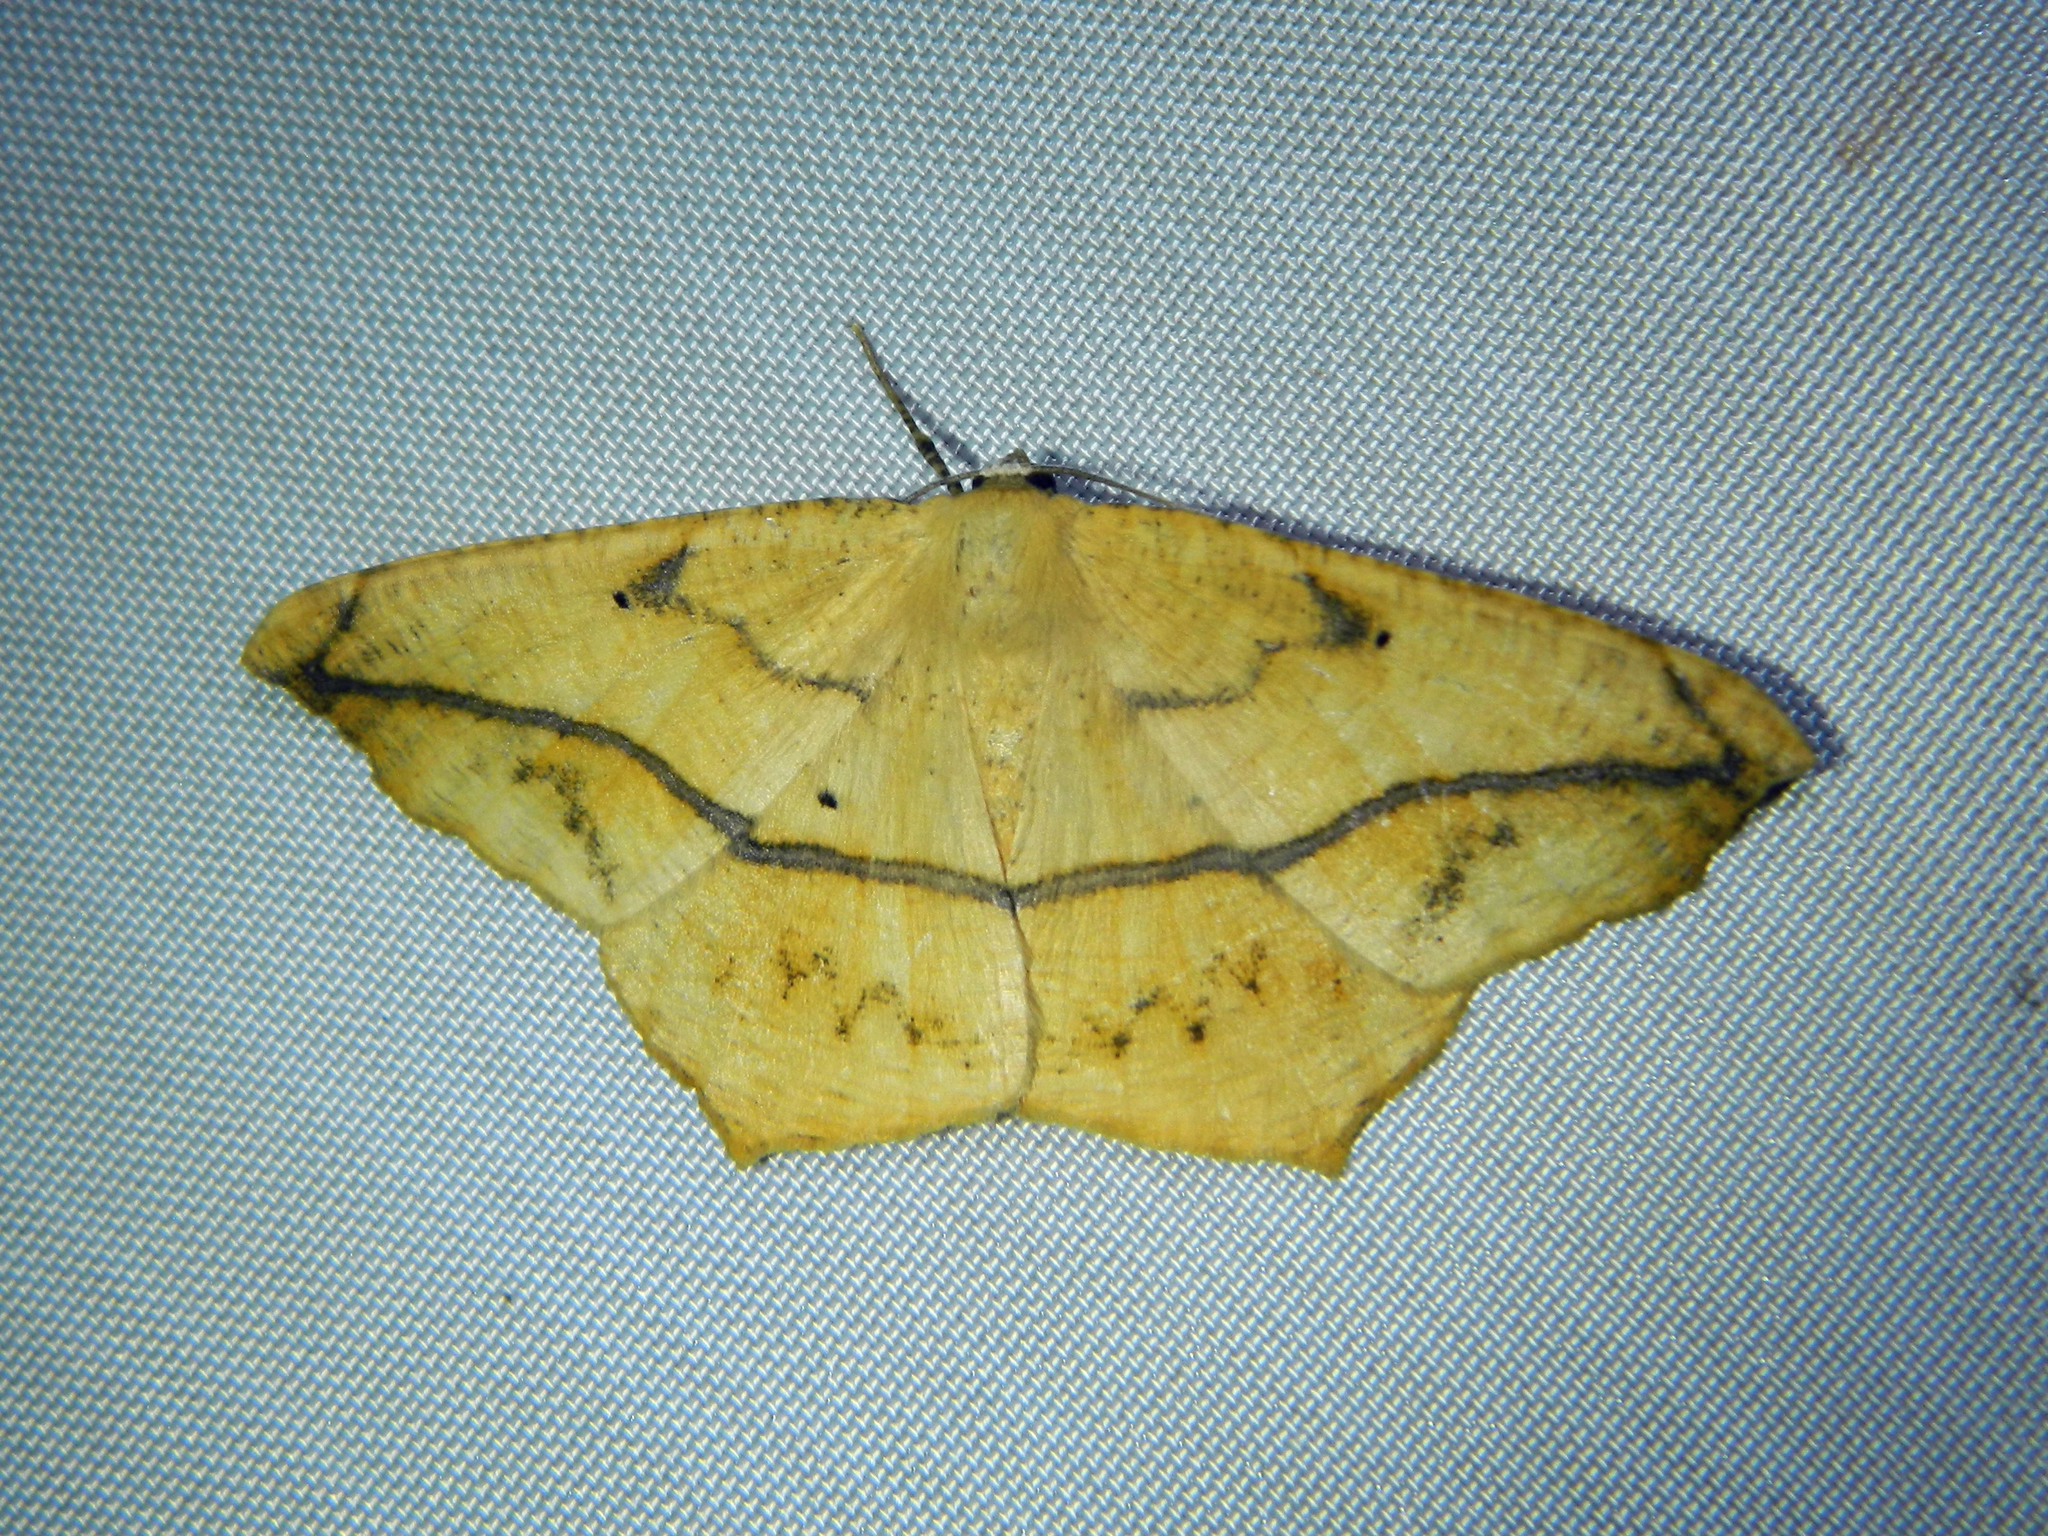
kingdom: Animalia
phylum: Arthropoda
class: Insecta
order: Lepidoptera
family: Geometridae
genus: Prochoerodes
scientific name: Prochoerodes lineola
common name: Large maple spanworm
